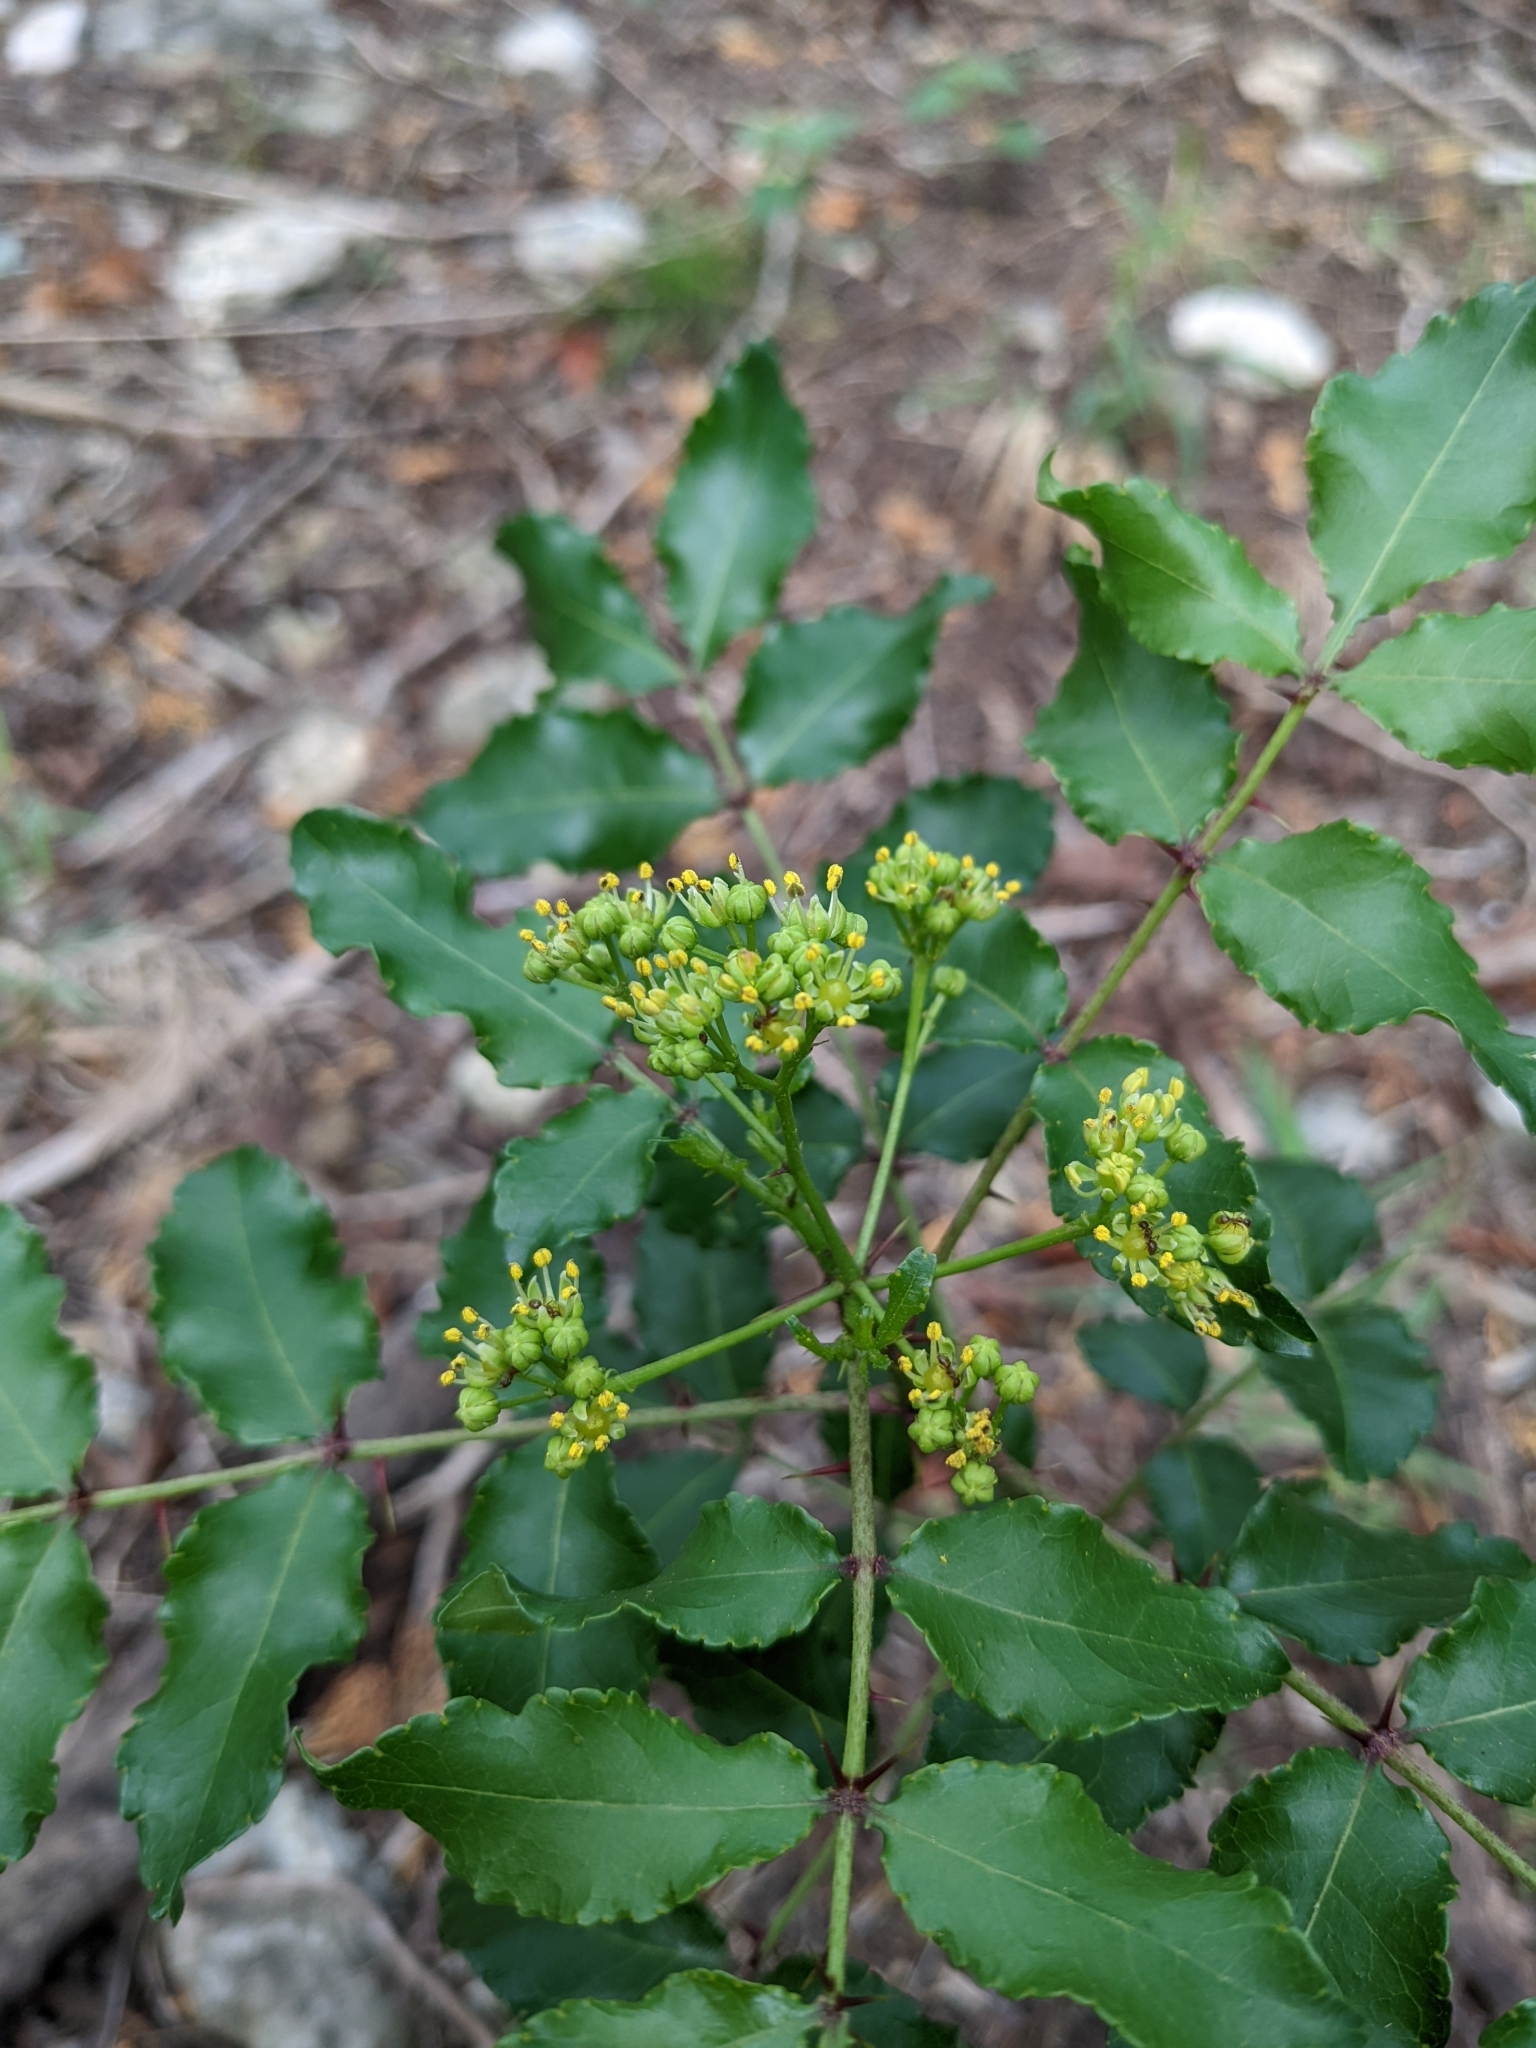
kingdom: Plantae
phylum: Tracheophyta
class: Magnoliopsida
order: Sapindales
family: Rutaceae
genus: Zanthoxylum
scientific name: Zanthoxylum clava-herculis
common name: Hercules'-club
